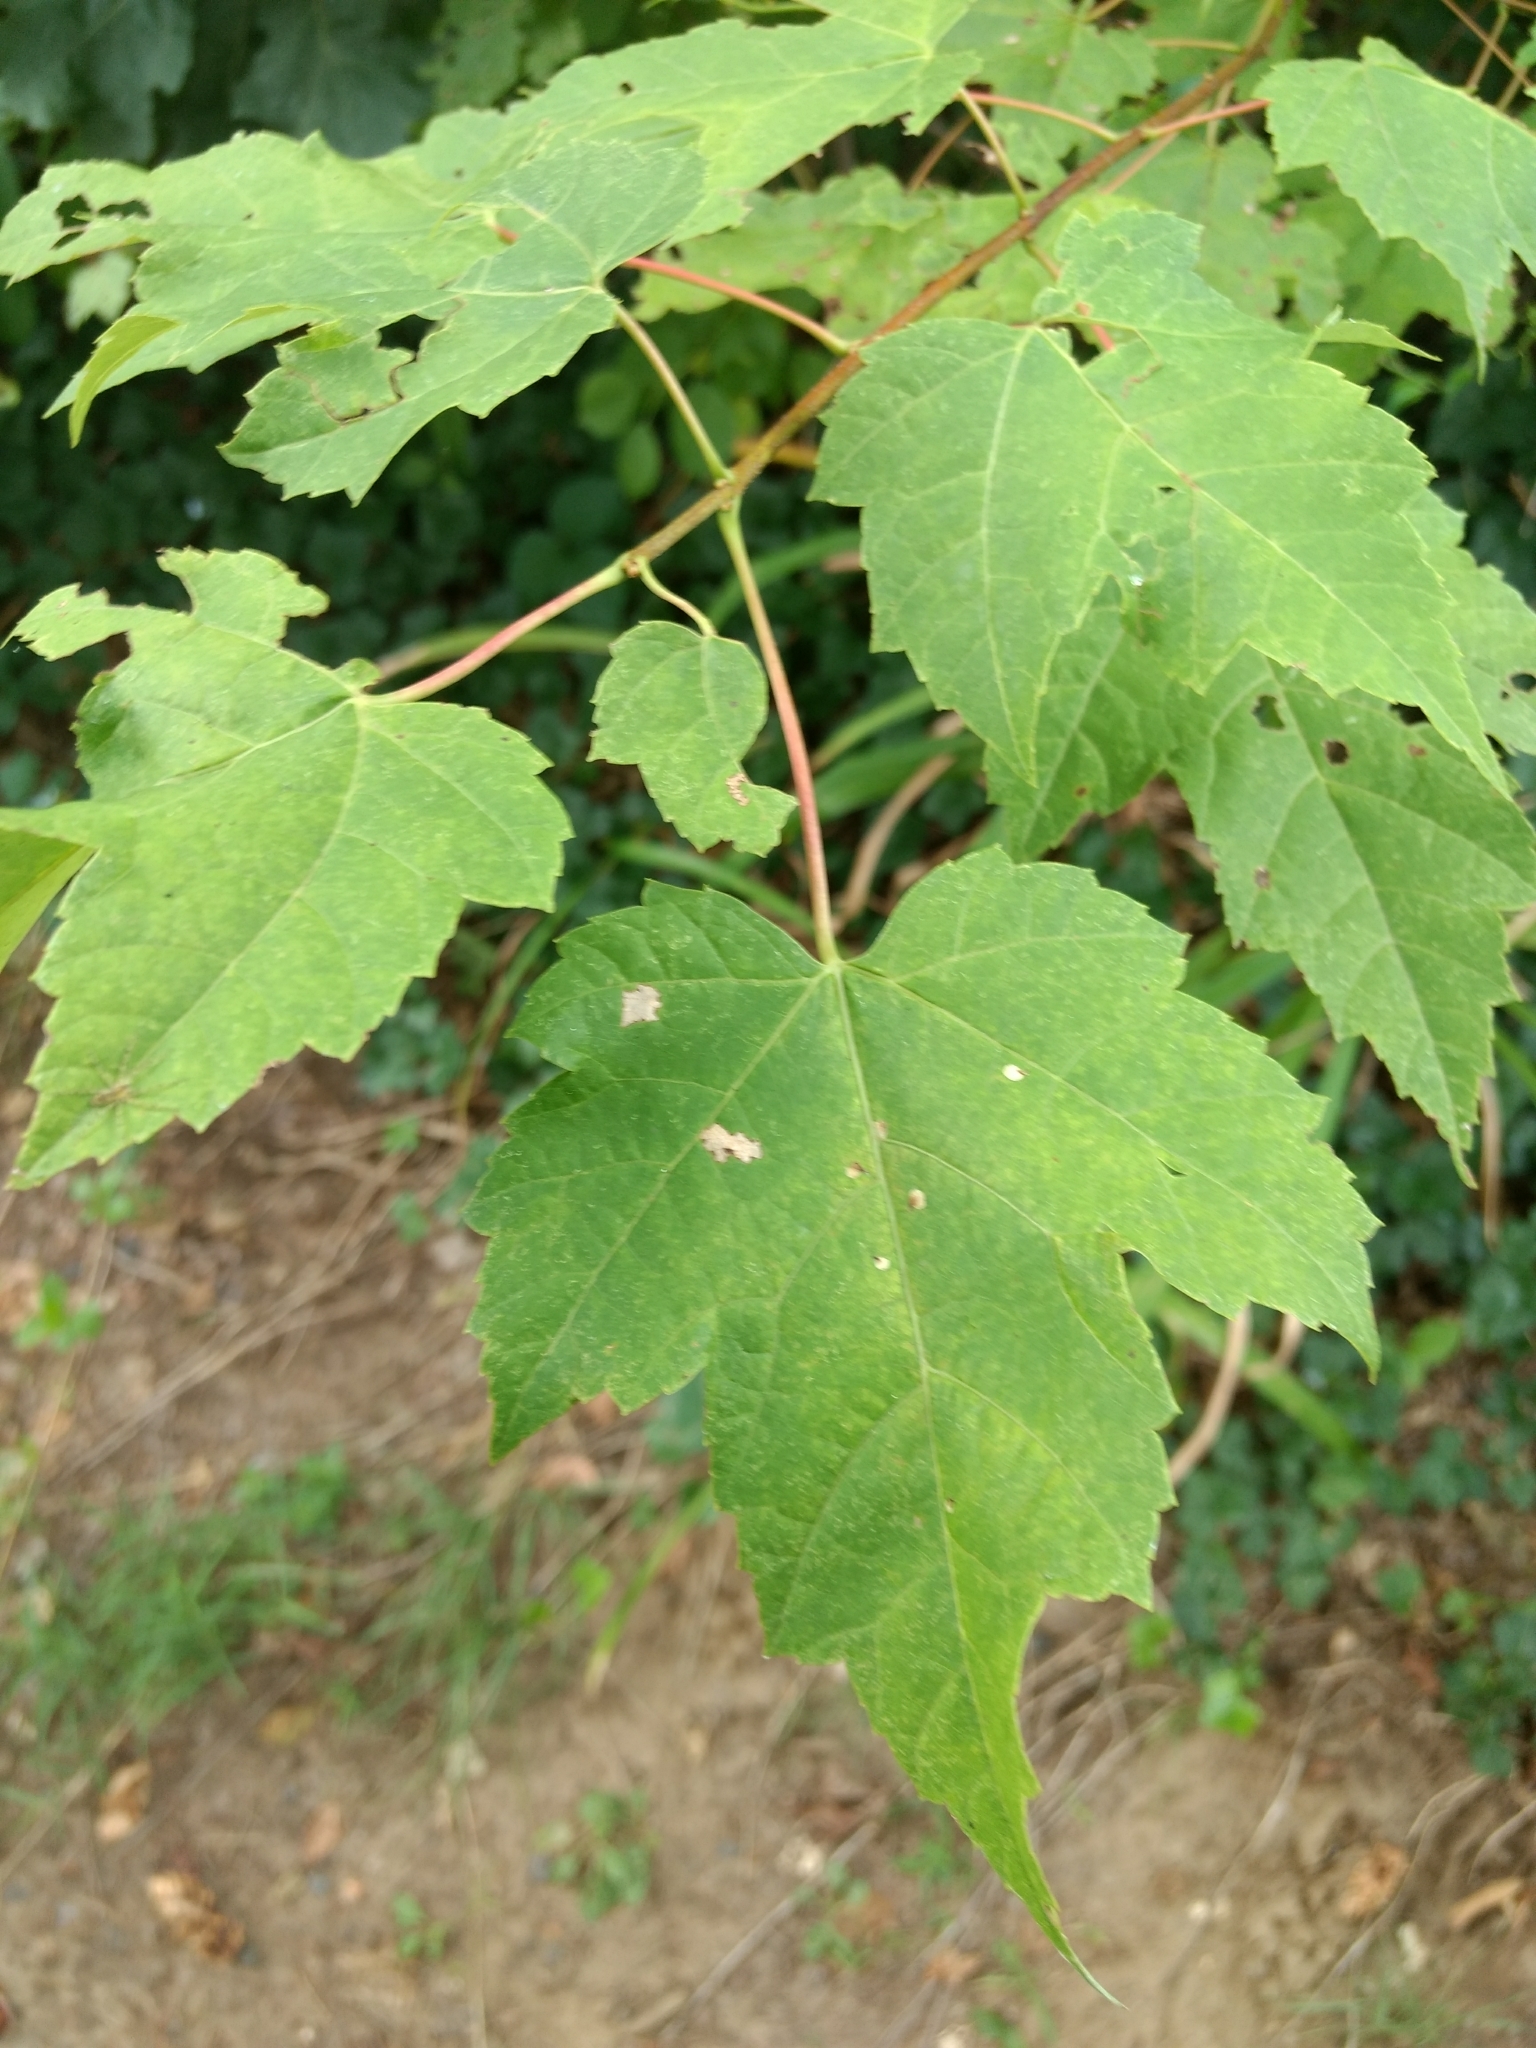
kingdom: Plantae
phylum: Tracheophyta
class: Magnoliopsida
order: Sapindales
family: Sapindaceae
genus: Acer
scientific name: Acer rubrum
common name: Red maple
